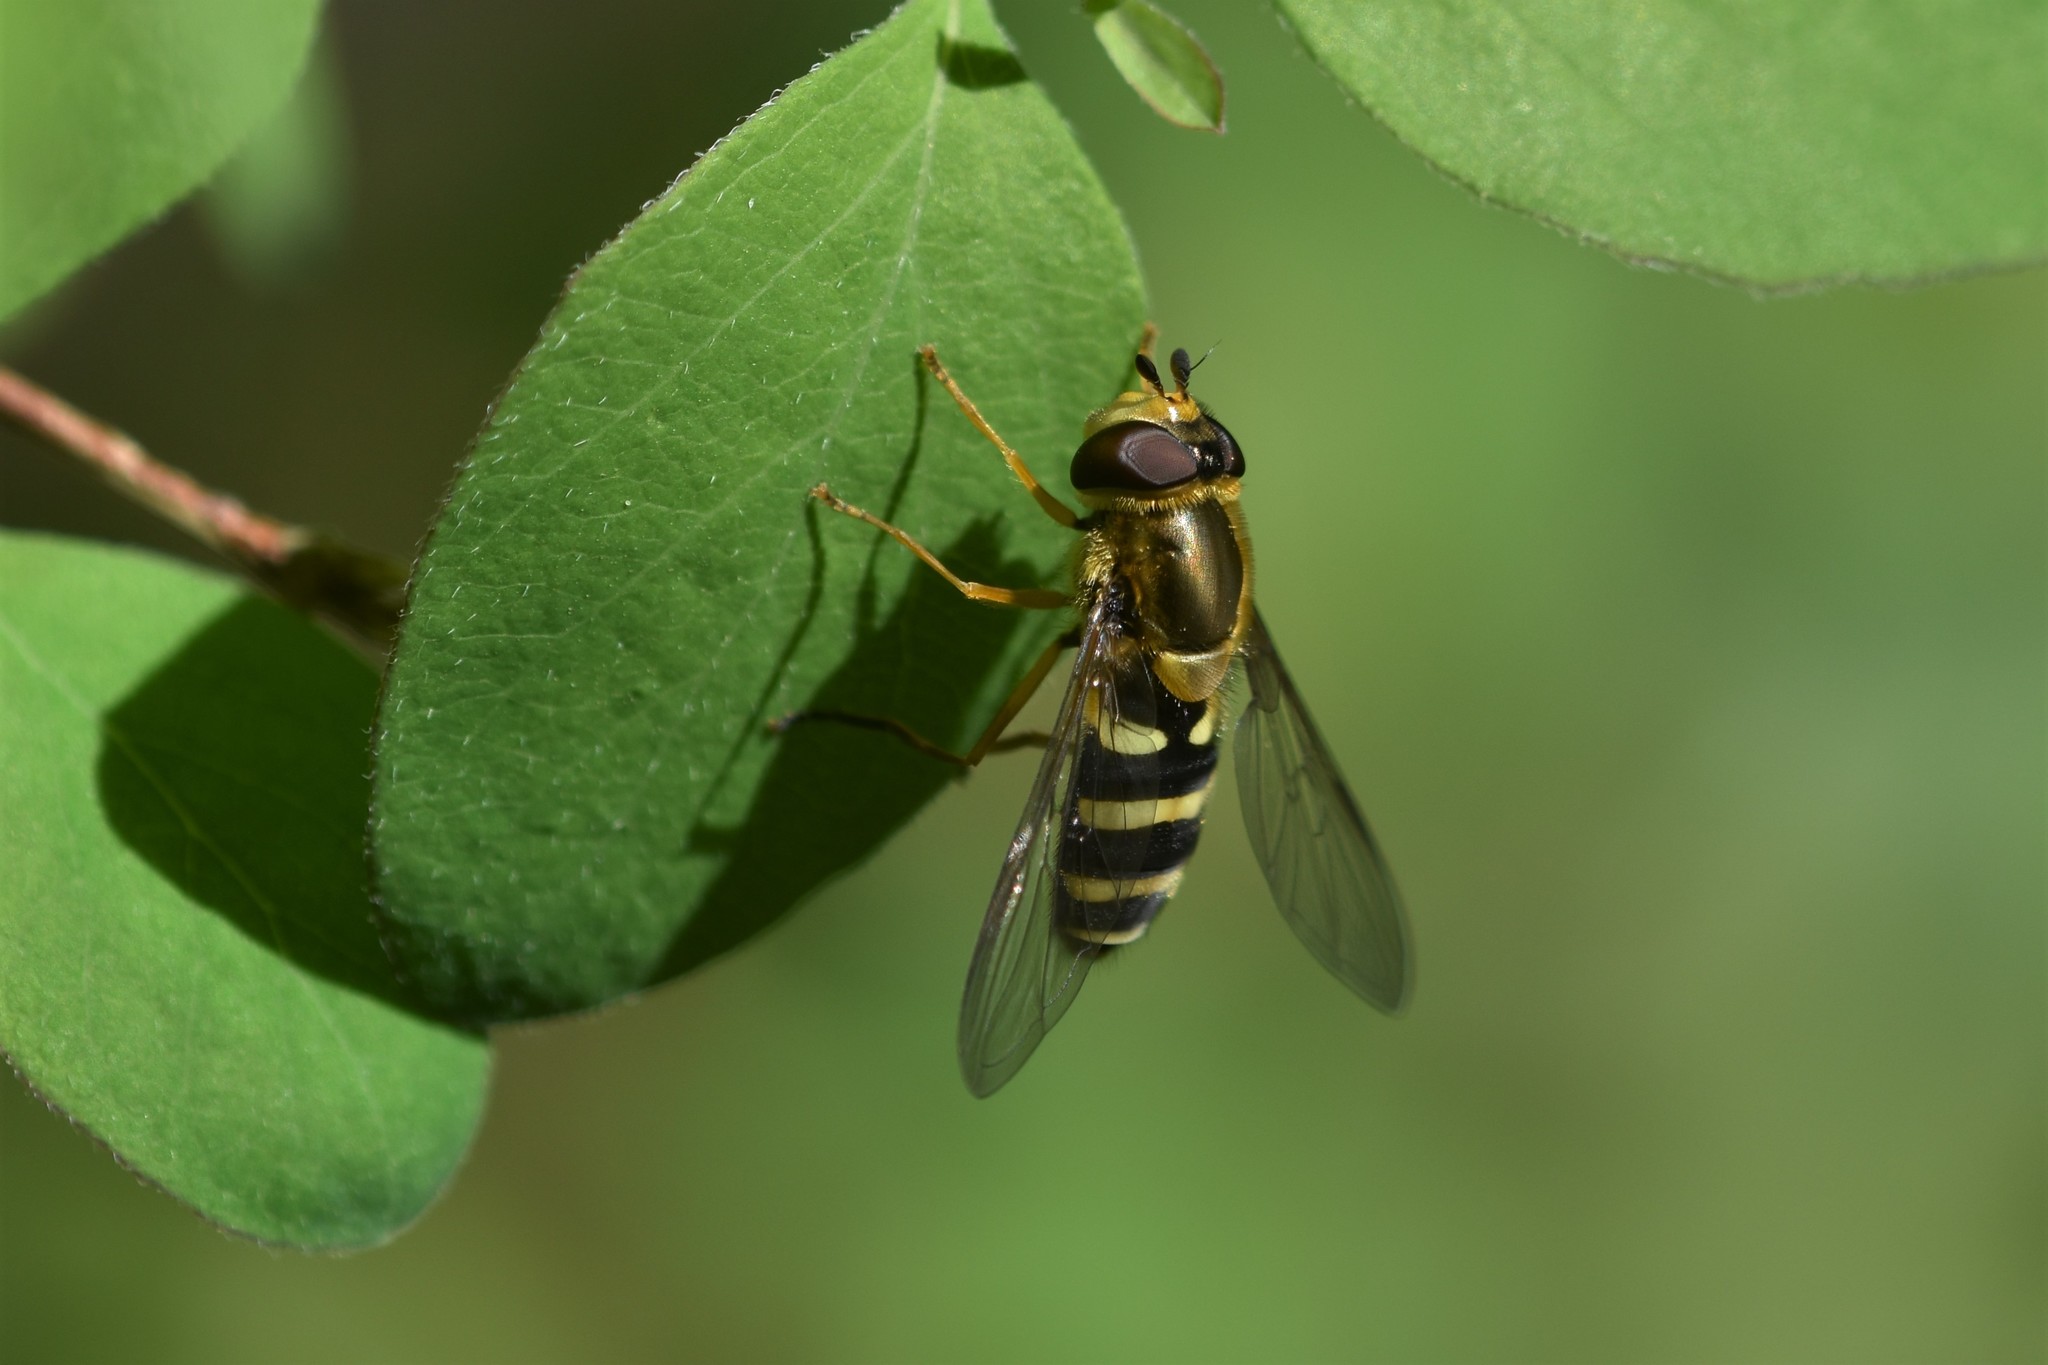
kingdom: Animalia
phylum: Arthropoda
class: Insecta
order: Diptera
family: Syrphidae
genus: Syrphus
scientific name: Syrphus opinator
